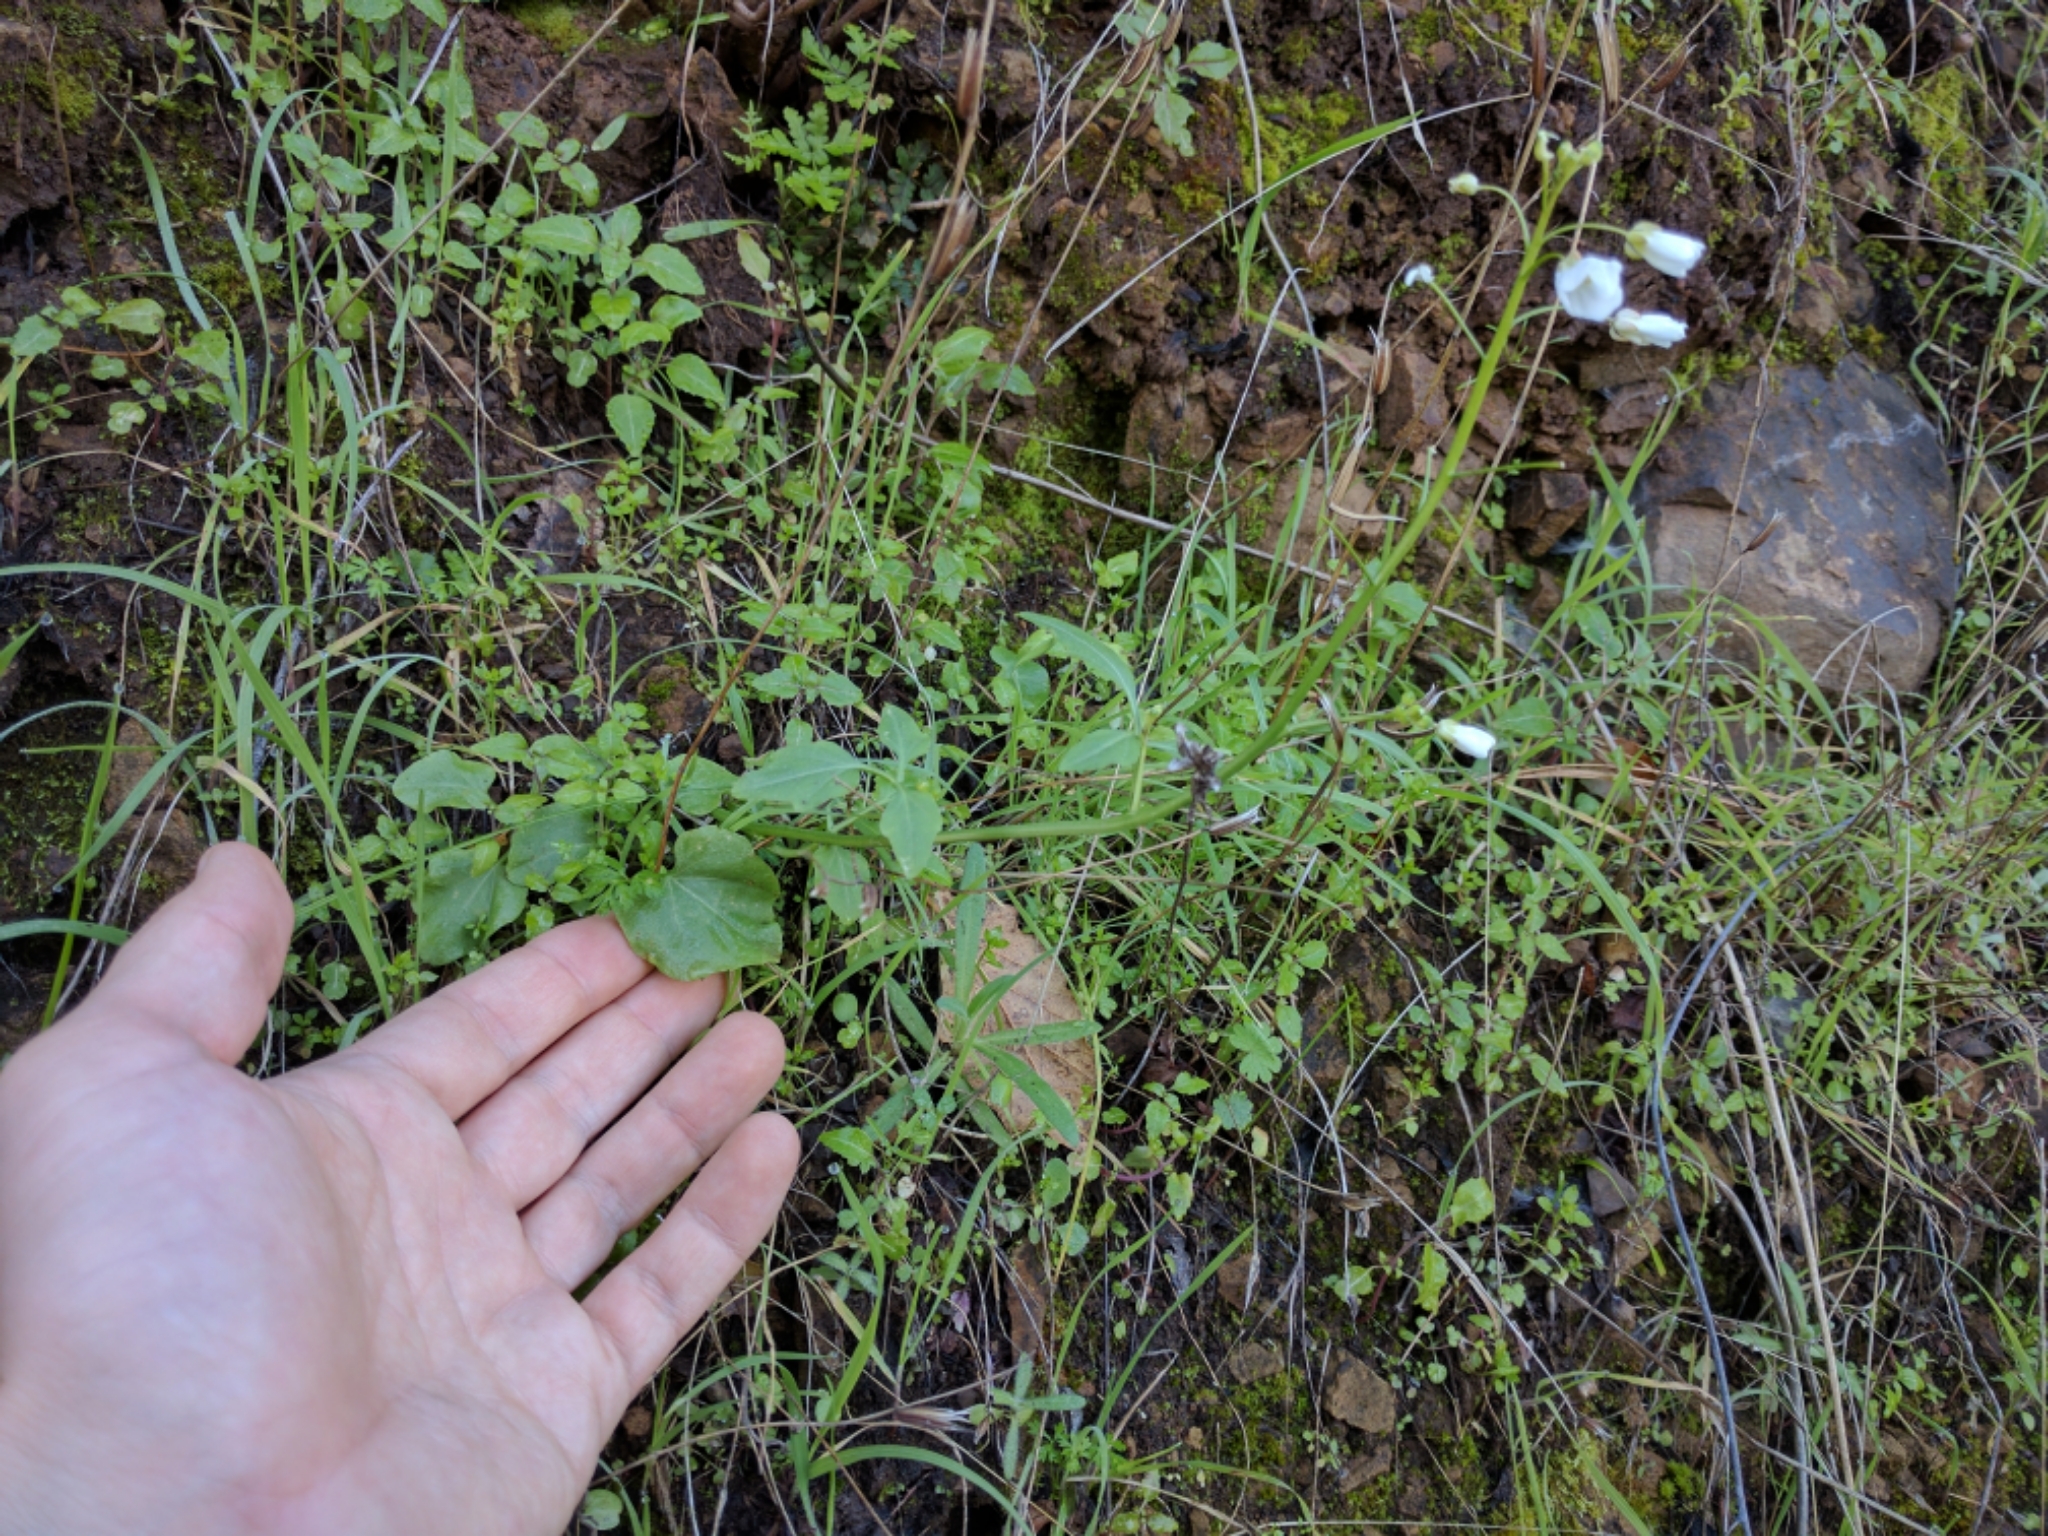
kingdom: Plantae
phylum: Tracheophyta
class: Magnoliopsida
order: Brassicales
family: Brassicaceae
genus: Cardamine
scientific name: Cardamine californica
